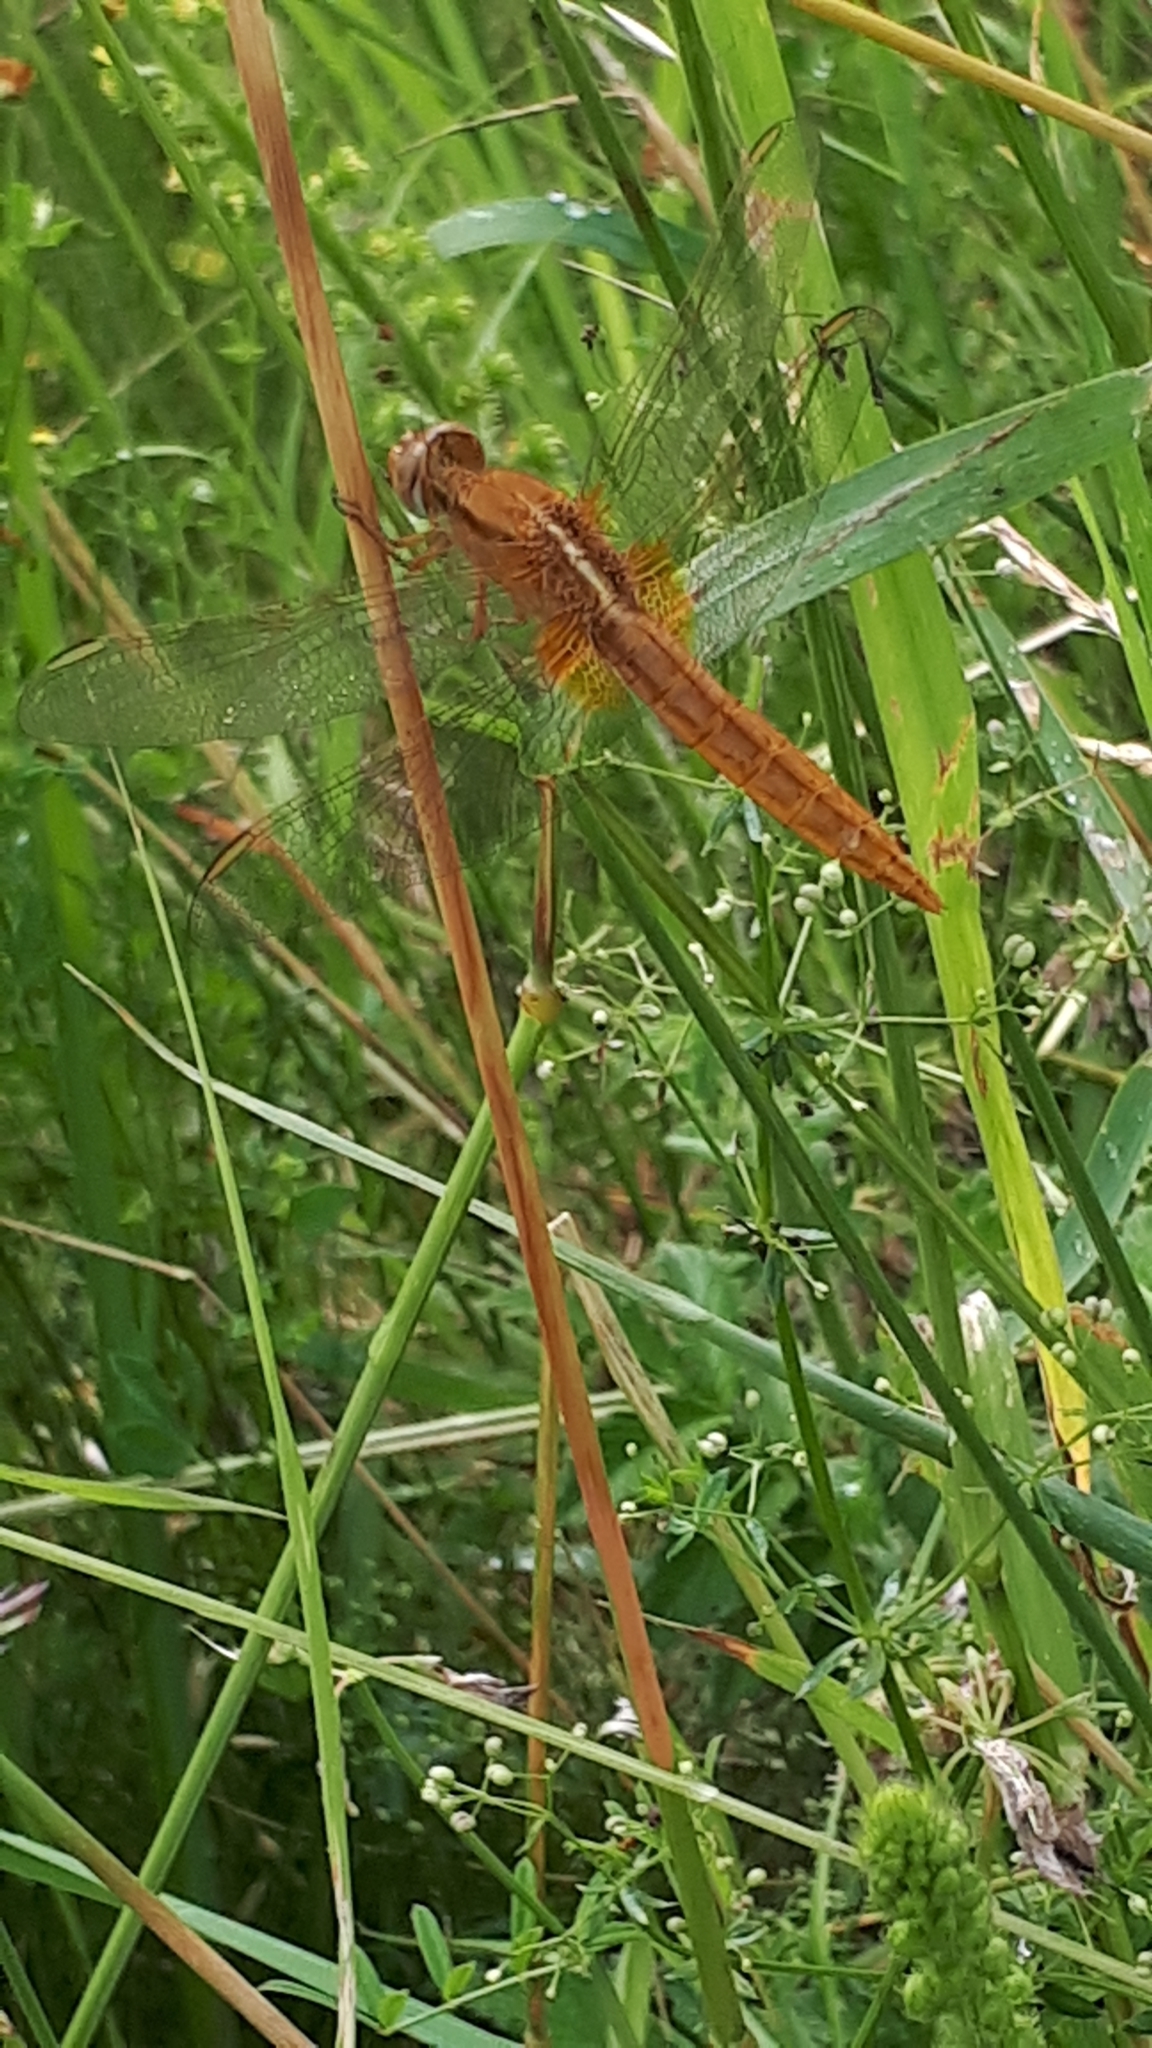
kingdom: Animalia
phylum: Arthropoda
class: Insecta
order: Odonata
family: Libellulidae
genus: Crocothemis
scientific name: Crocothemis erythraea
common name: Scarlet dragonfly
